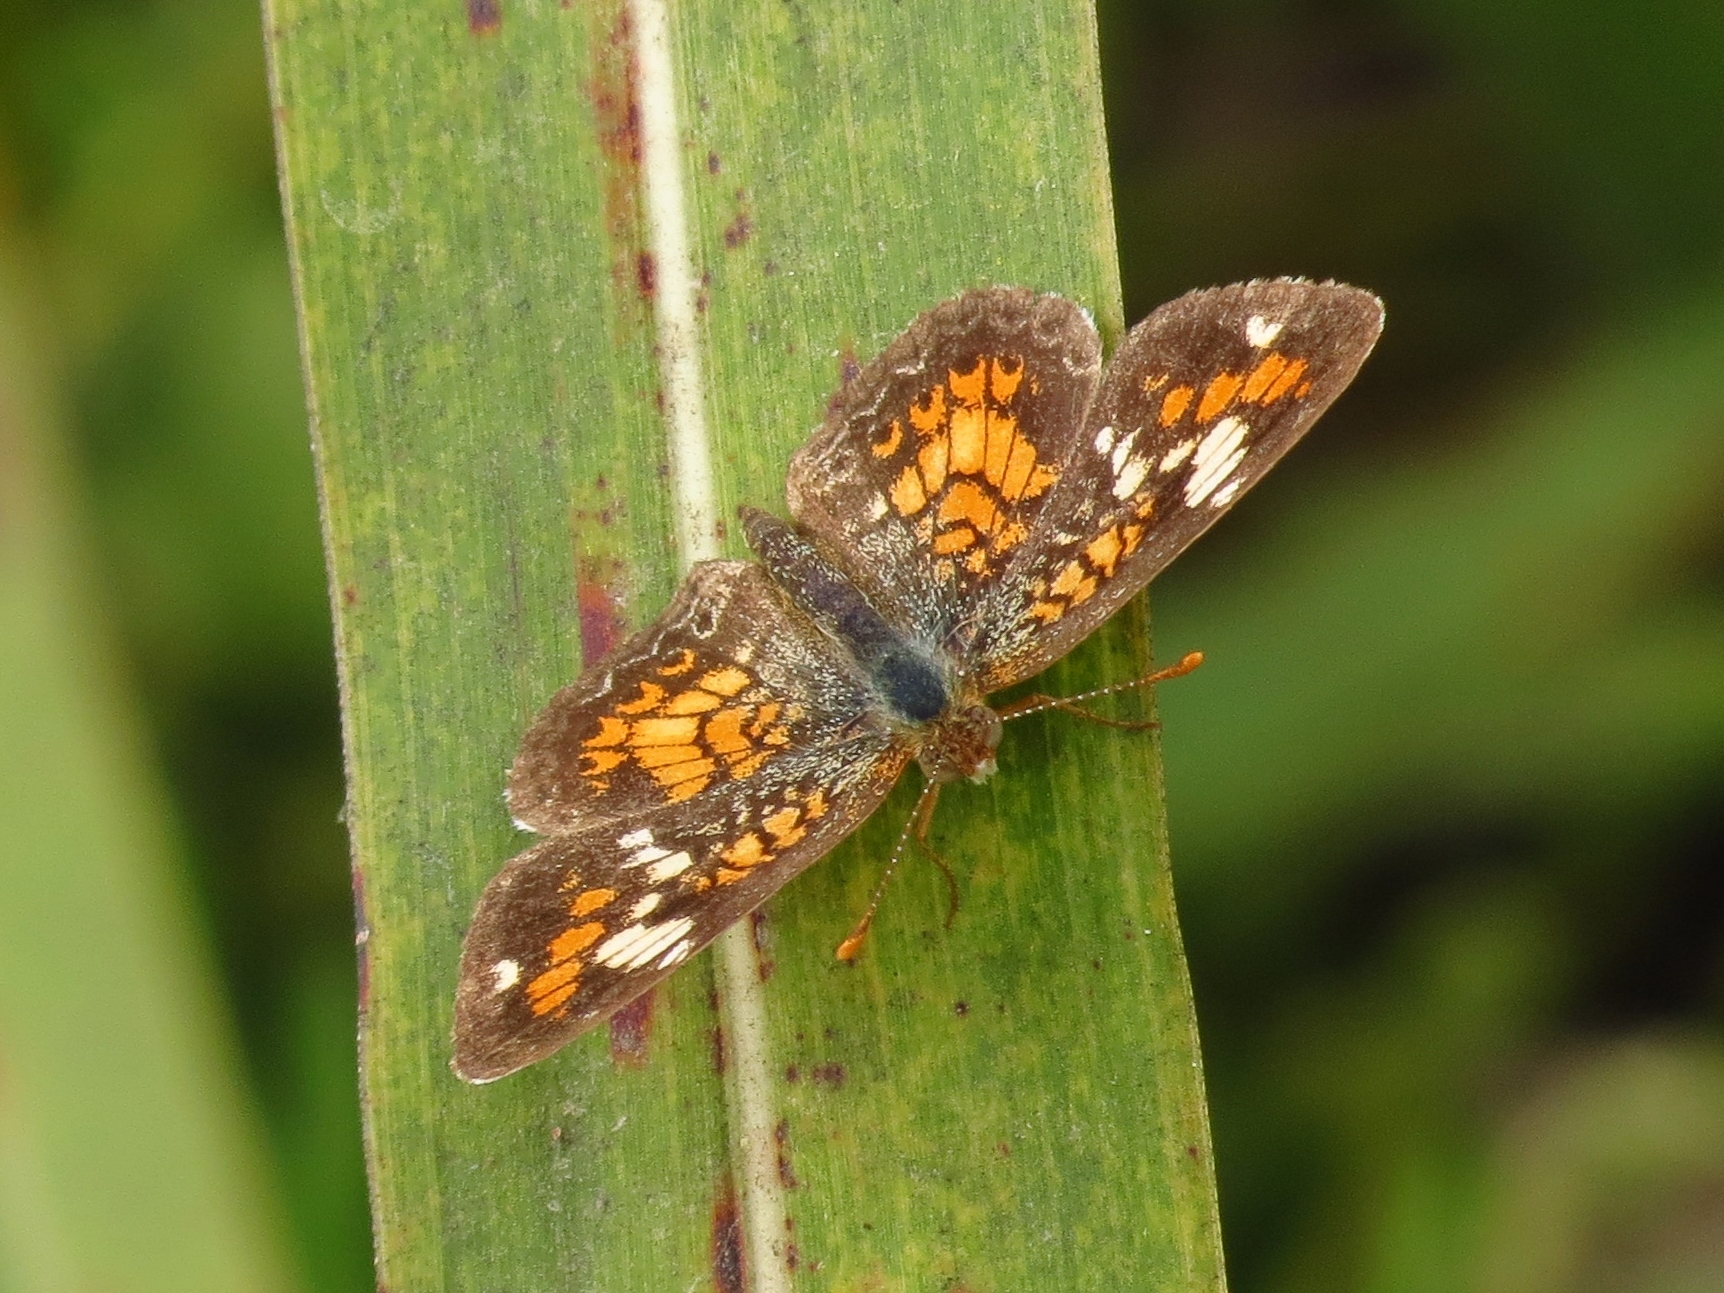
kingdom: Animalia
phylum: Arthropoda
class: Insecta
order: Lepidoptera
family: Nymphalidae
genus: Phyciodes
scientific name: Phyciodes phaon
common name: Phaon crescent
